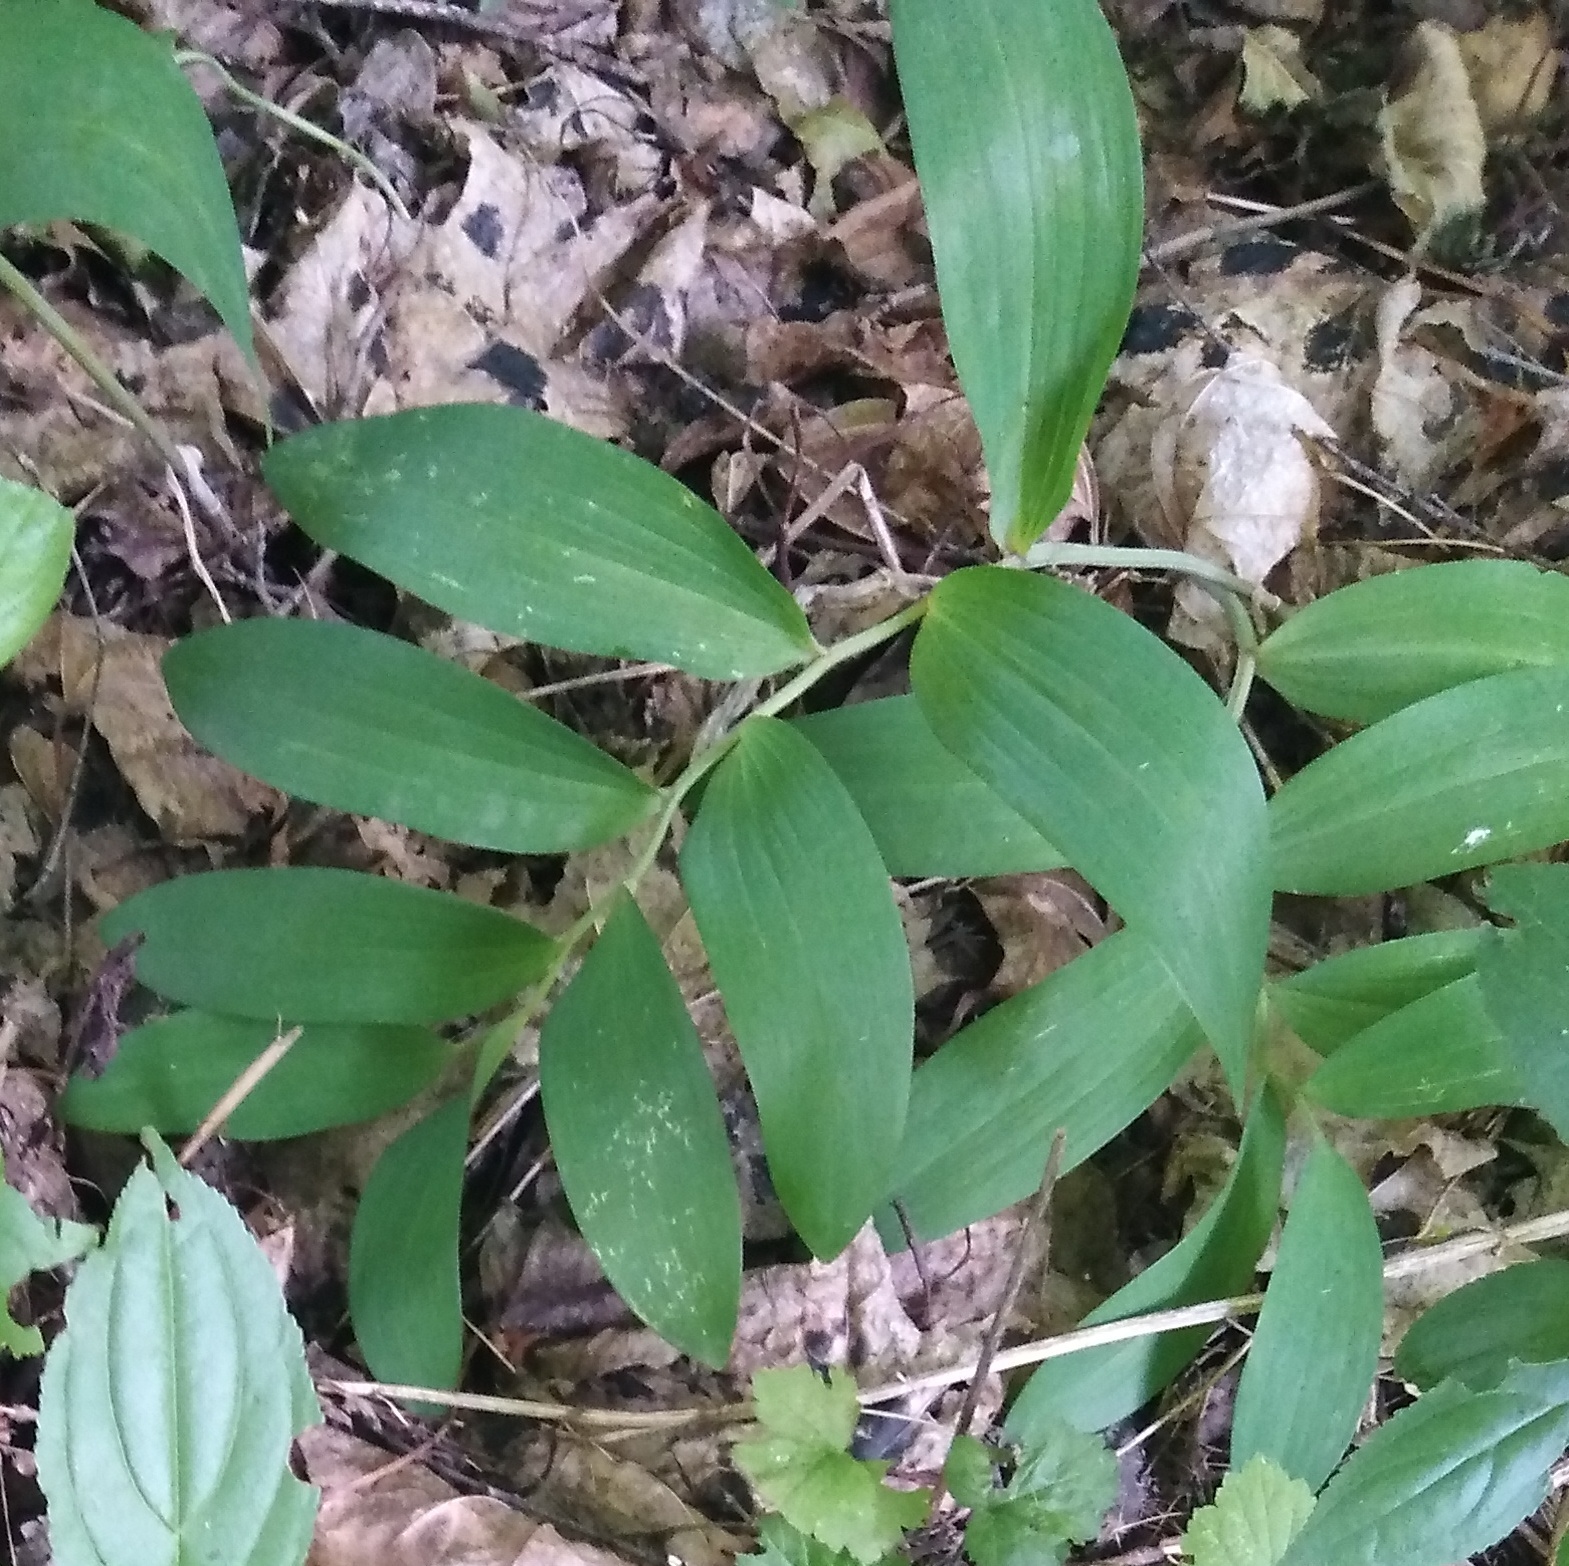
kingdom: Plantae
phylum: Tracheophyta
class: Liliopsida
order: Asparagales
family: Asparagaceae
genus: Polygonatum
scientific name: Polygonatum odoratum
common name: Angular solomon's-seal
